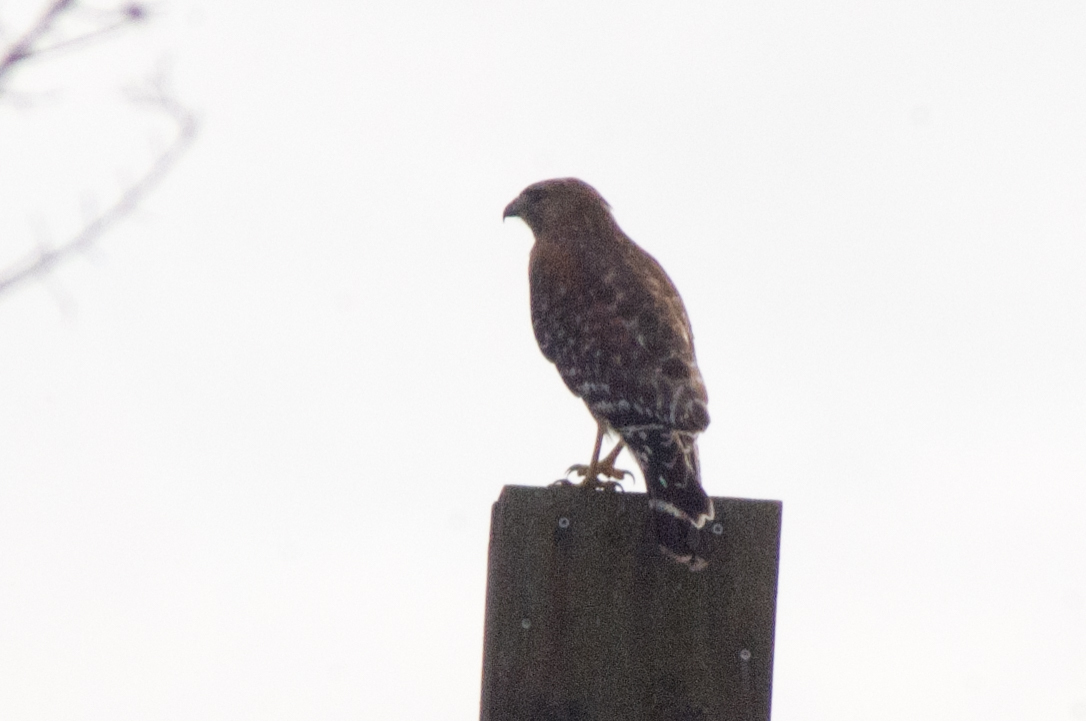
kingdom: Animalia
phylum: Chordata
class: Aves
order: Accipitriformes
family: Accipitridae
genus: Buteo
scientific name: Buteo lineatus
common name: Red-shouldered hawk
